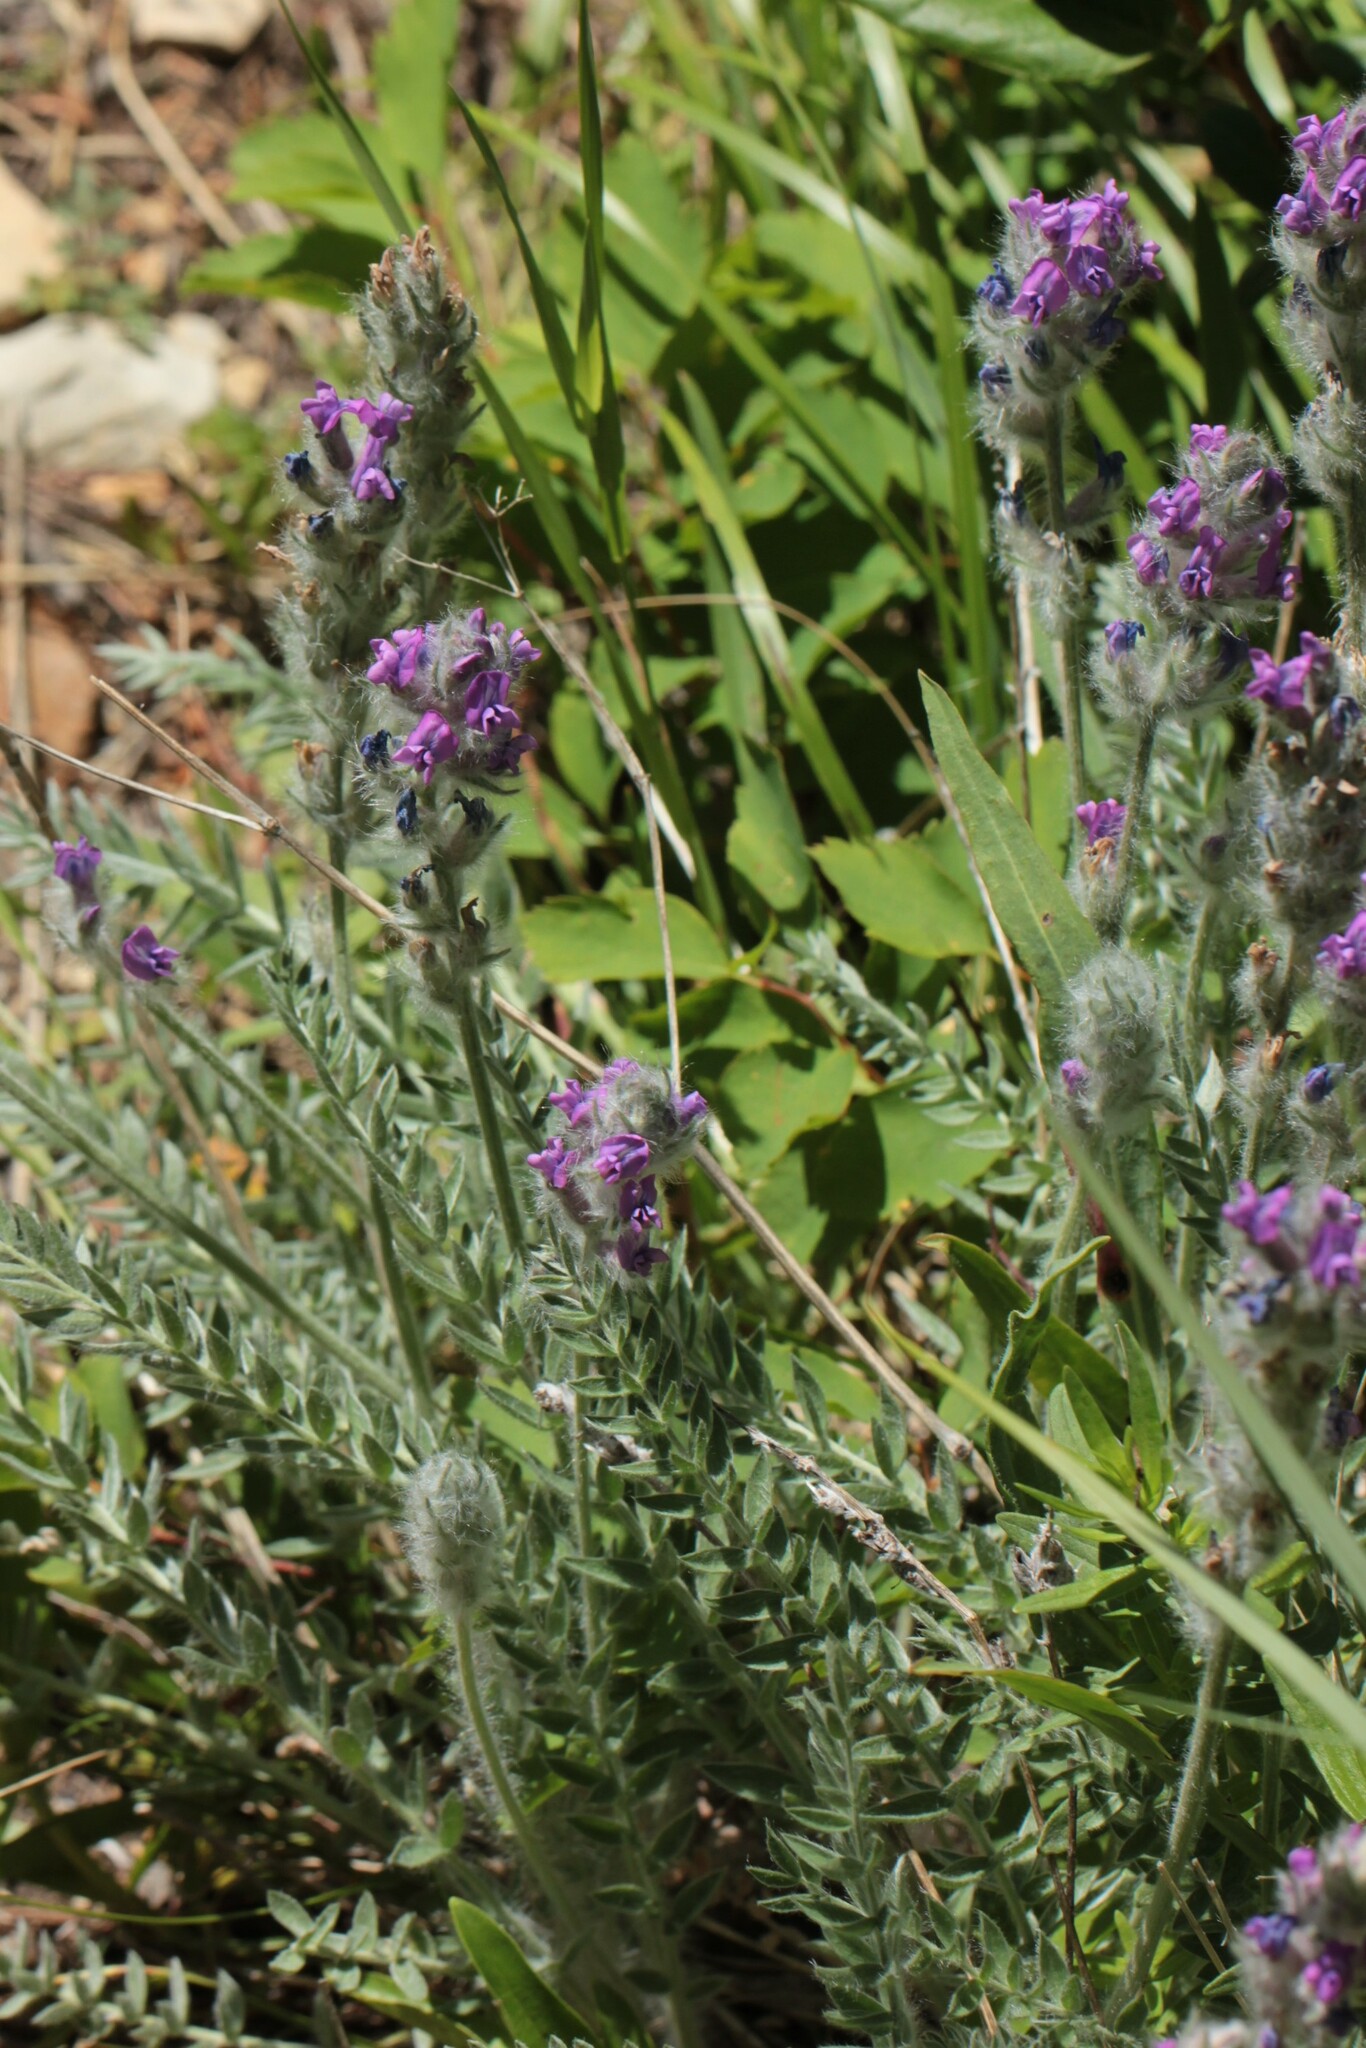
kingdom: Plantae
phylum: Tracheophyta
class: Magnoliopsida
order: Fabales
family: Fabaceae
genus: Oxytropis
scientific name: Oxytropis splendens
